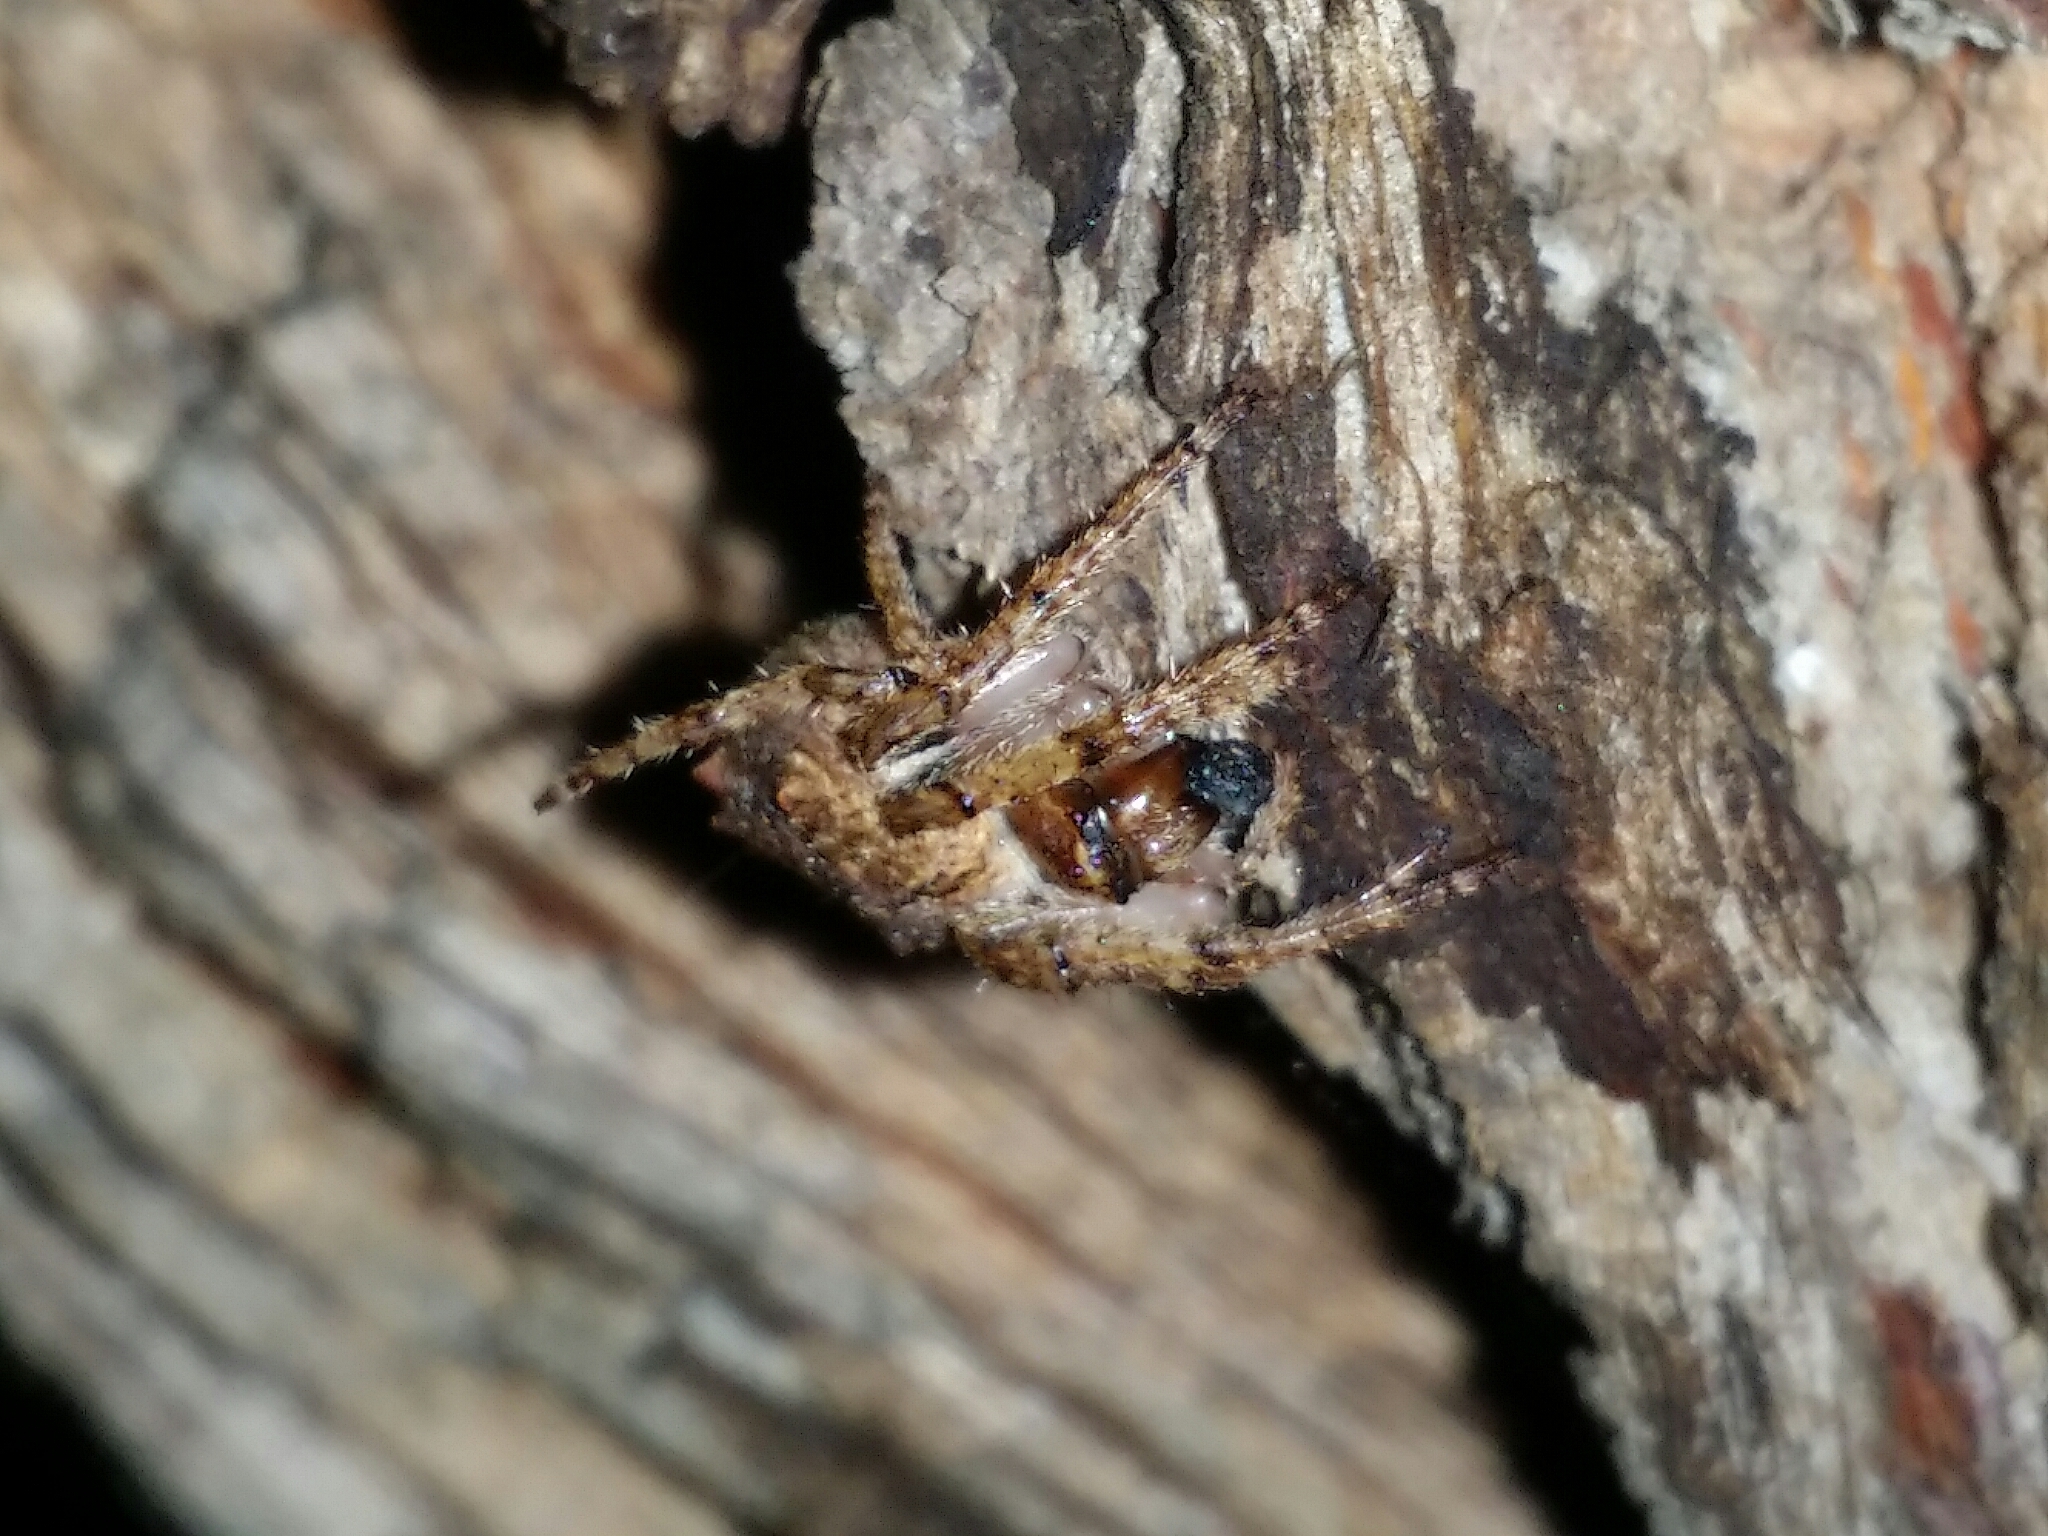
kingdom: Animalia
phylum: Arthropoda
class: Arachnida
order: Araneae
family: Araneidae
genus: Eriophora
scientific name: Eriophora pustulosa
